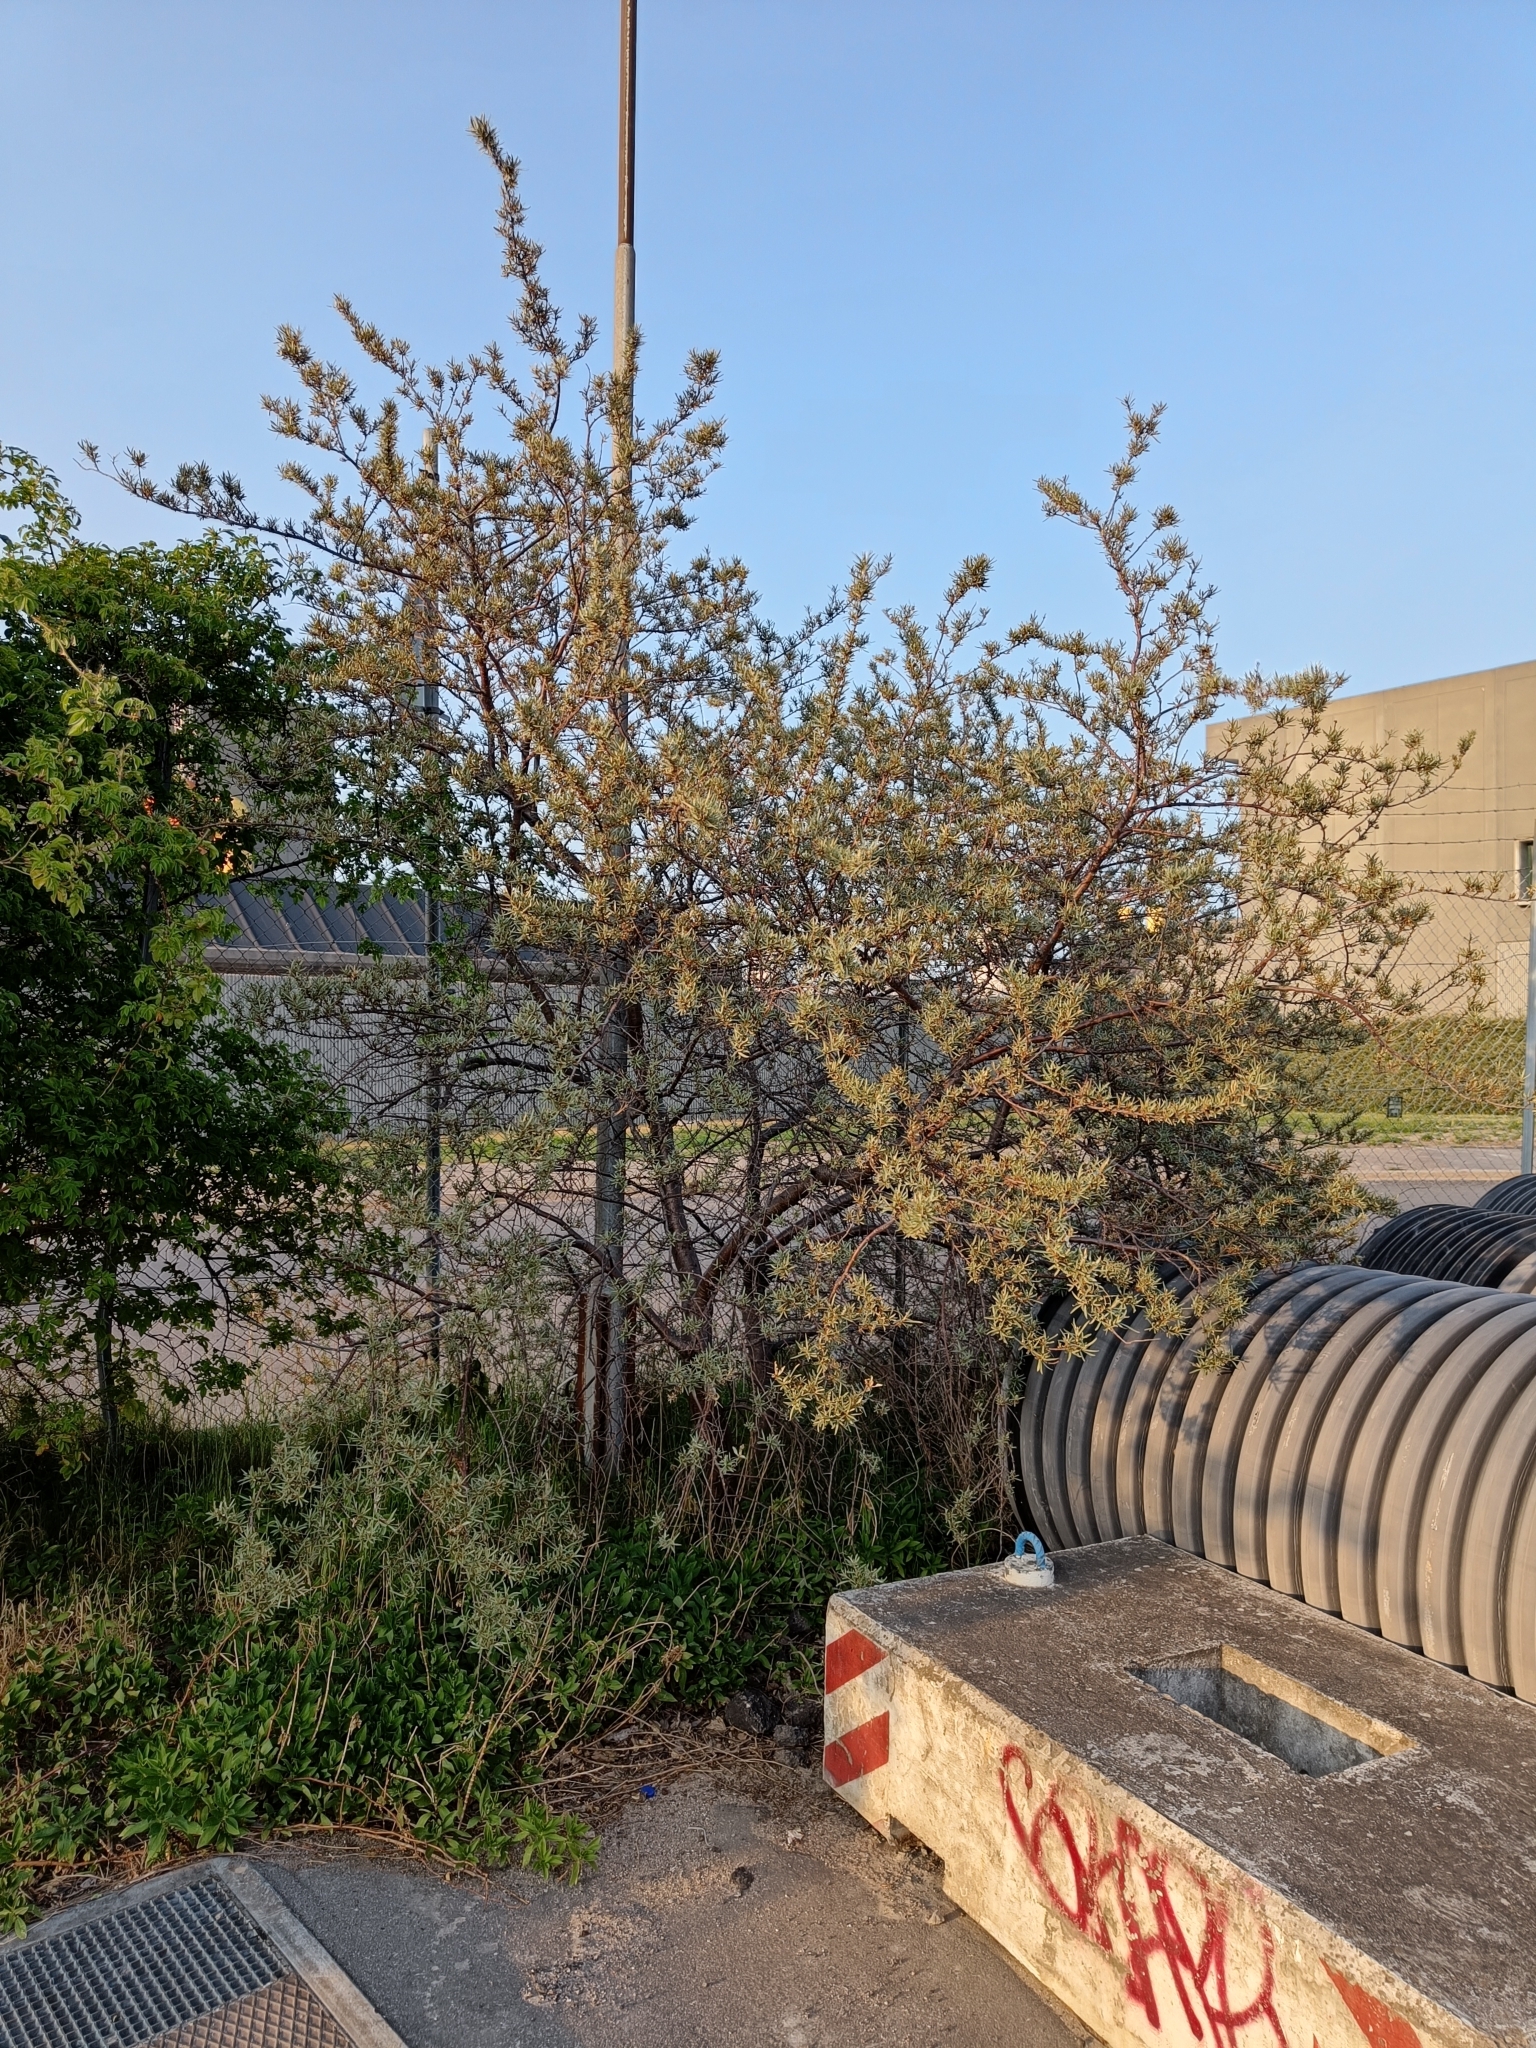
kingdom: Plantae
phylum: Tracheophyta
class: Magnoliopsida
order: Rosales
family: Elaeagnaceae
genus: Hippophae
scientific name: Hippophae rhamnoides
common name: Sea-buckthorn
